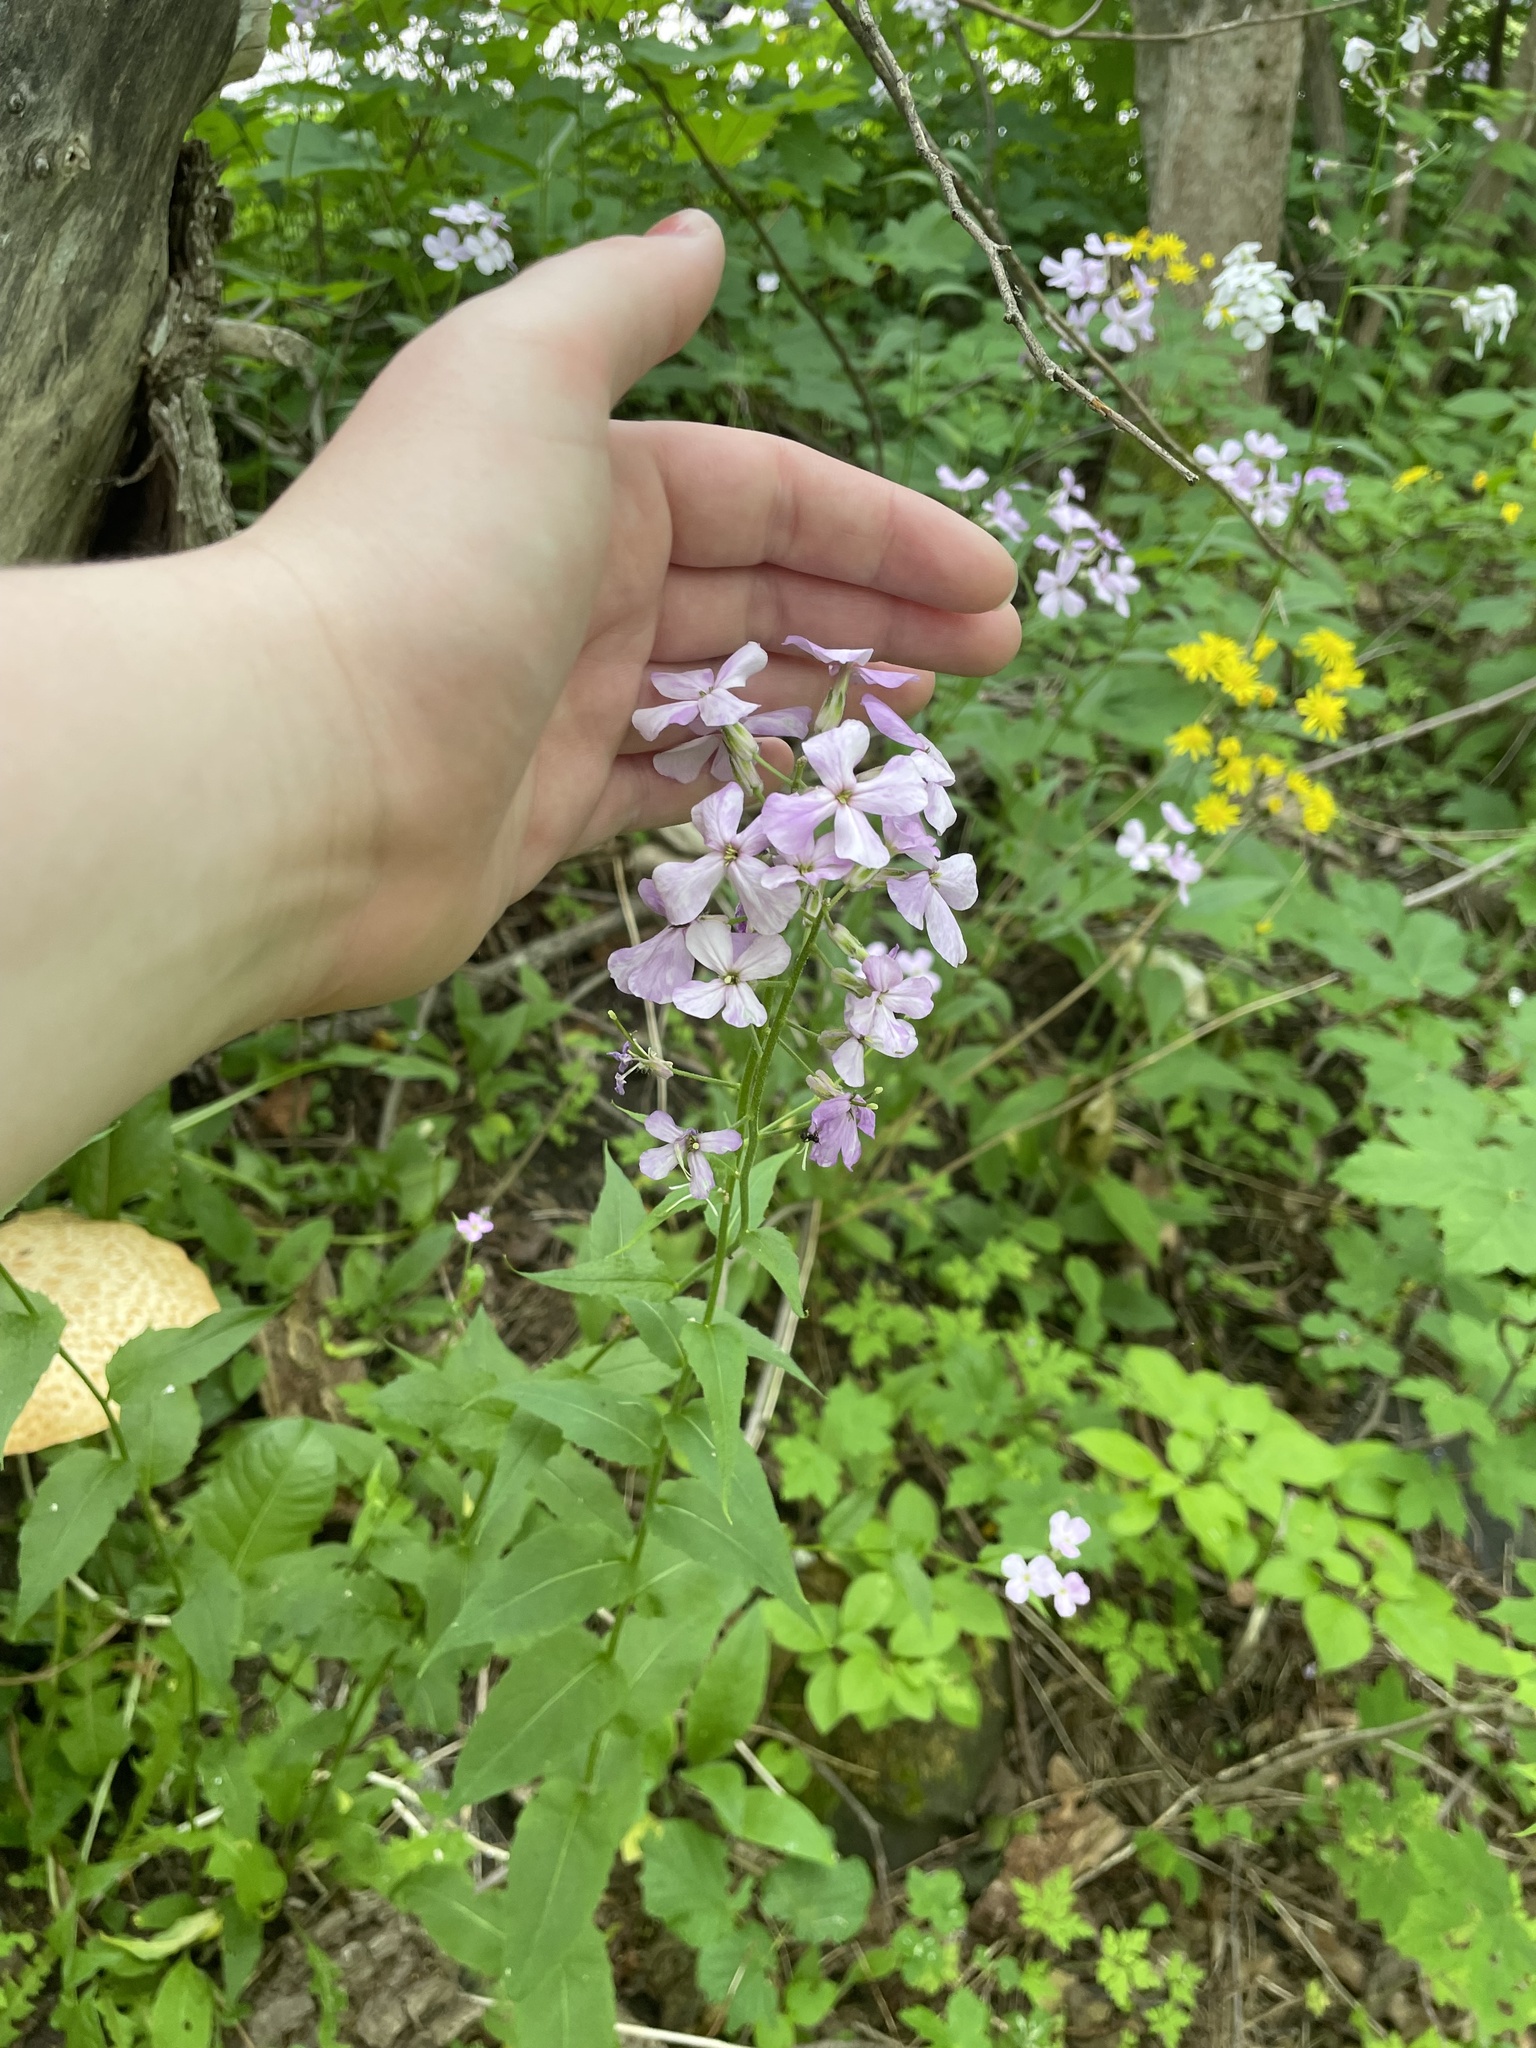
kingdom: Plantae
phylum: Tracheophyta
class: Magnoliopsida
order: Brassicales
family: Brassicaceae
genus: Hesperis
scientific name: Hesperis matronalis
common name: Dame's-violet
